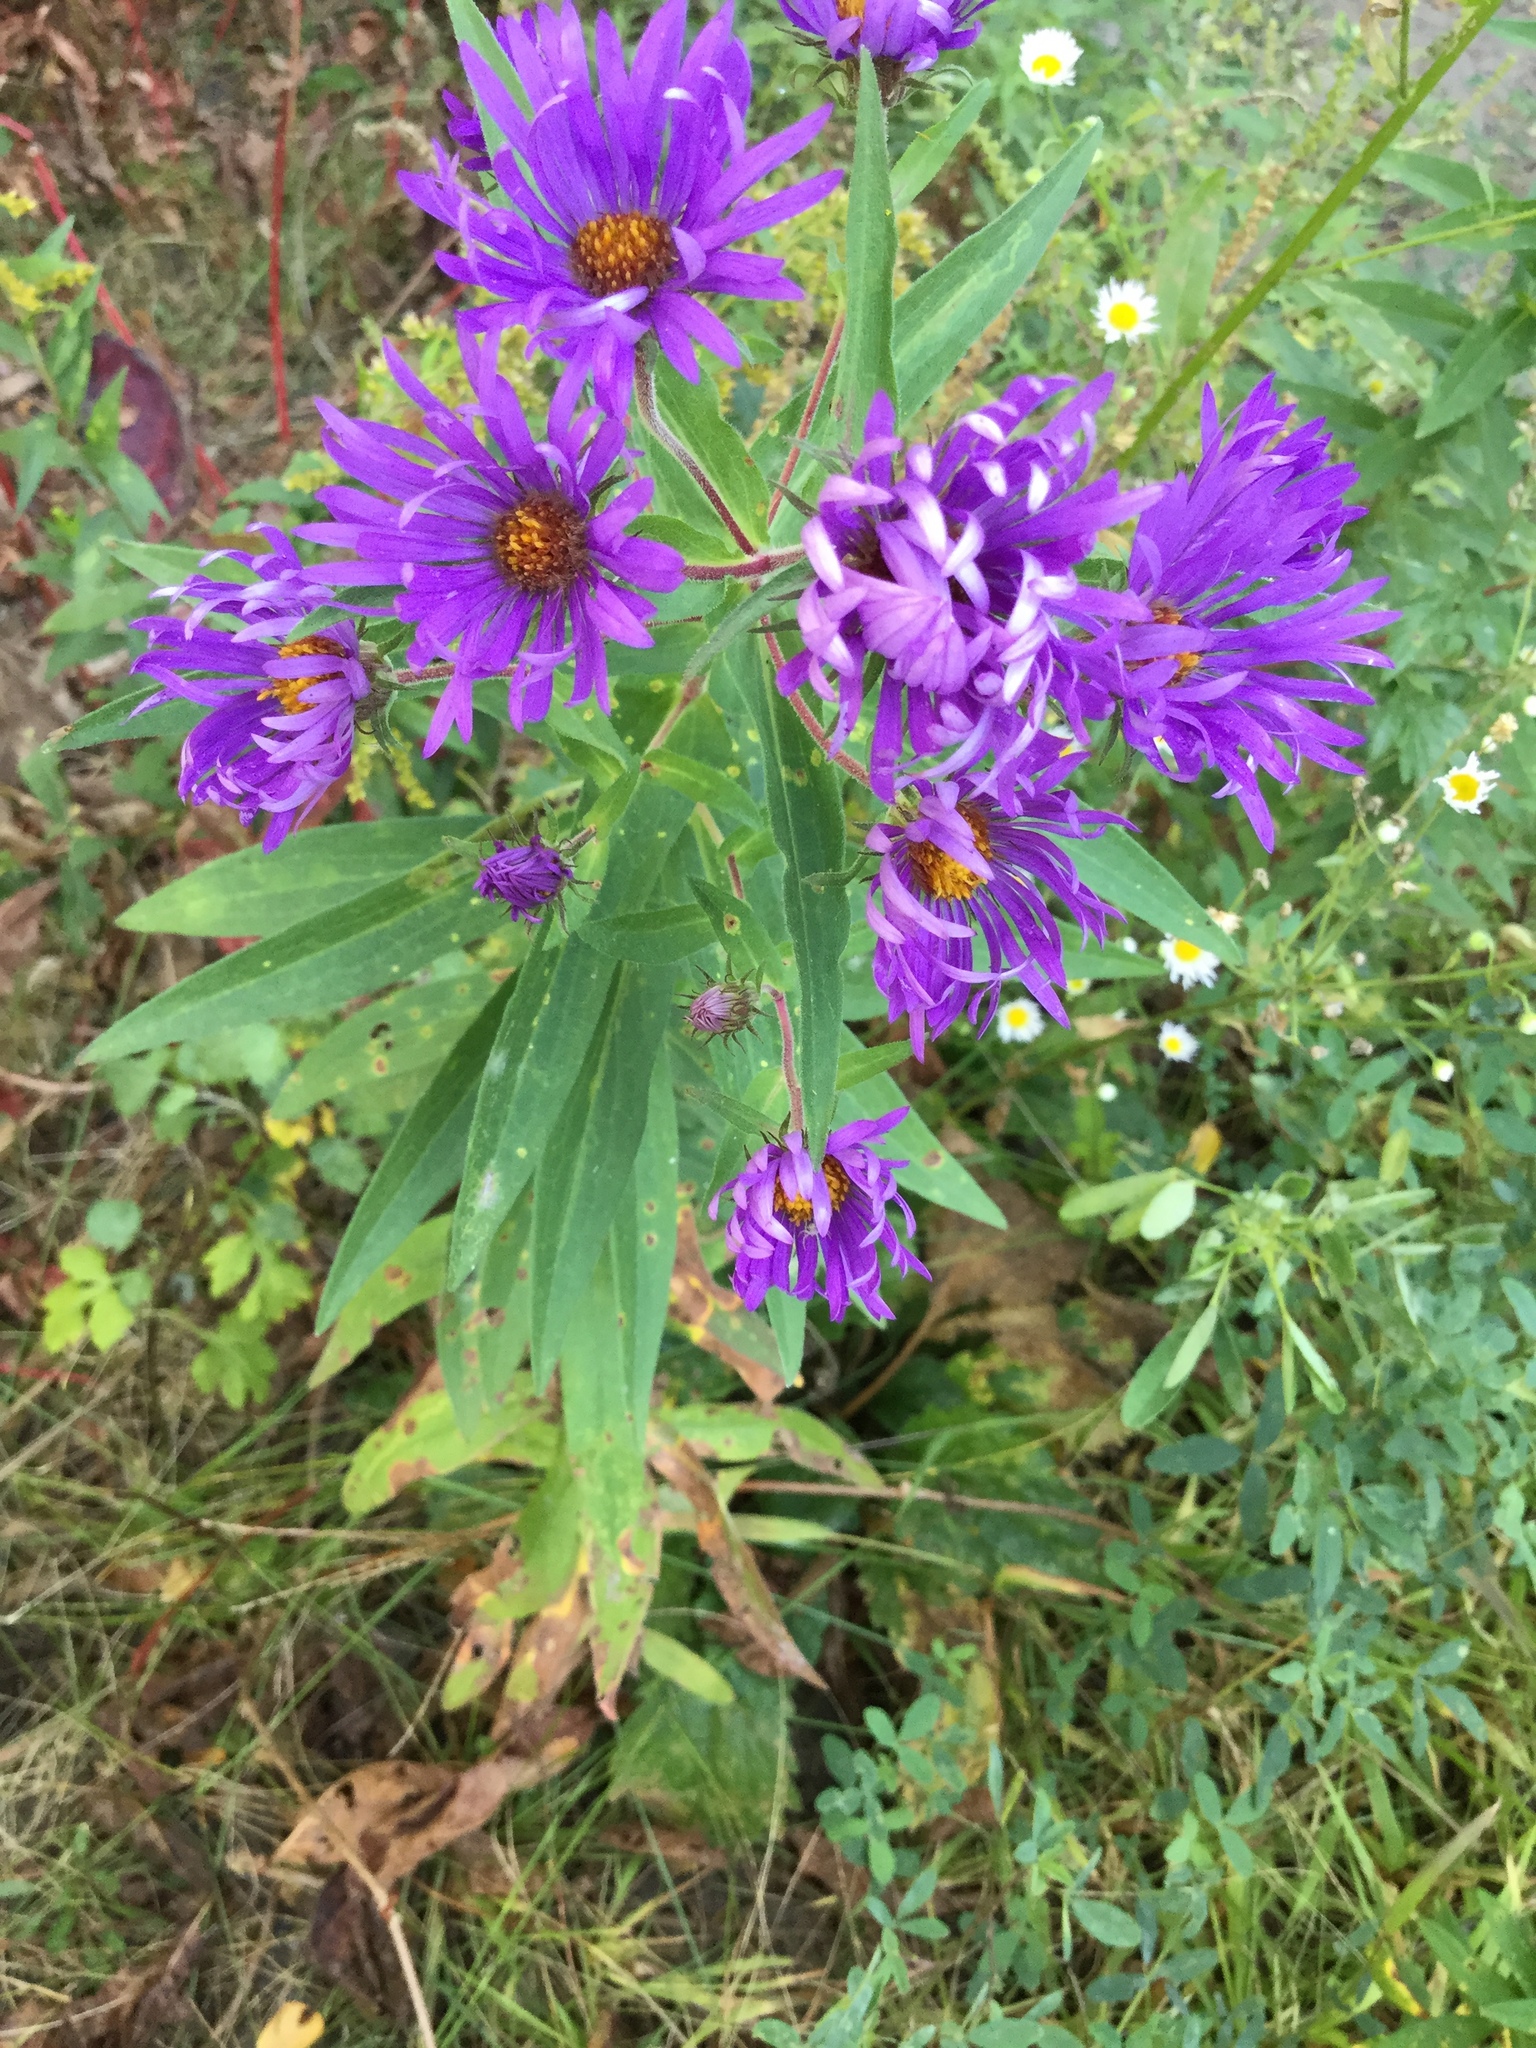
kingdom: Plantae
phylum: Tracheophyta
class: Magnoliopsida
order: Asterales
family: Asteraceae
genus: Symphyotrichum
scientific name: Symphyotrichum novae-angliae
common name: Michaelmas daisy
